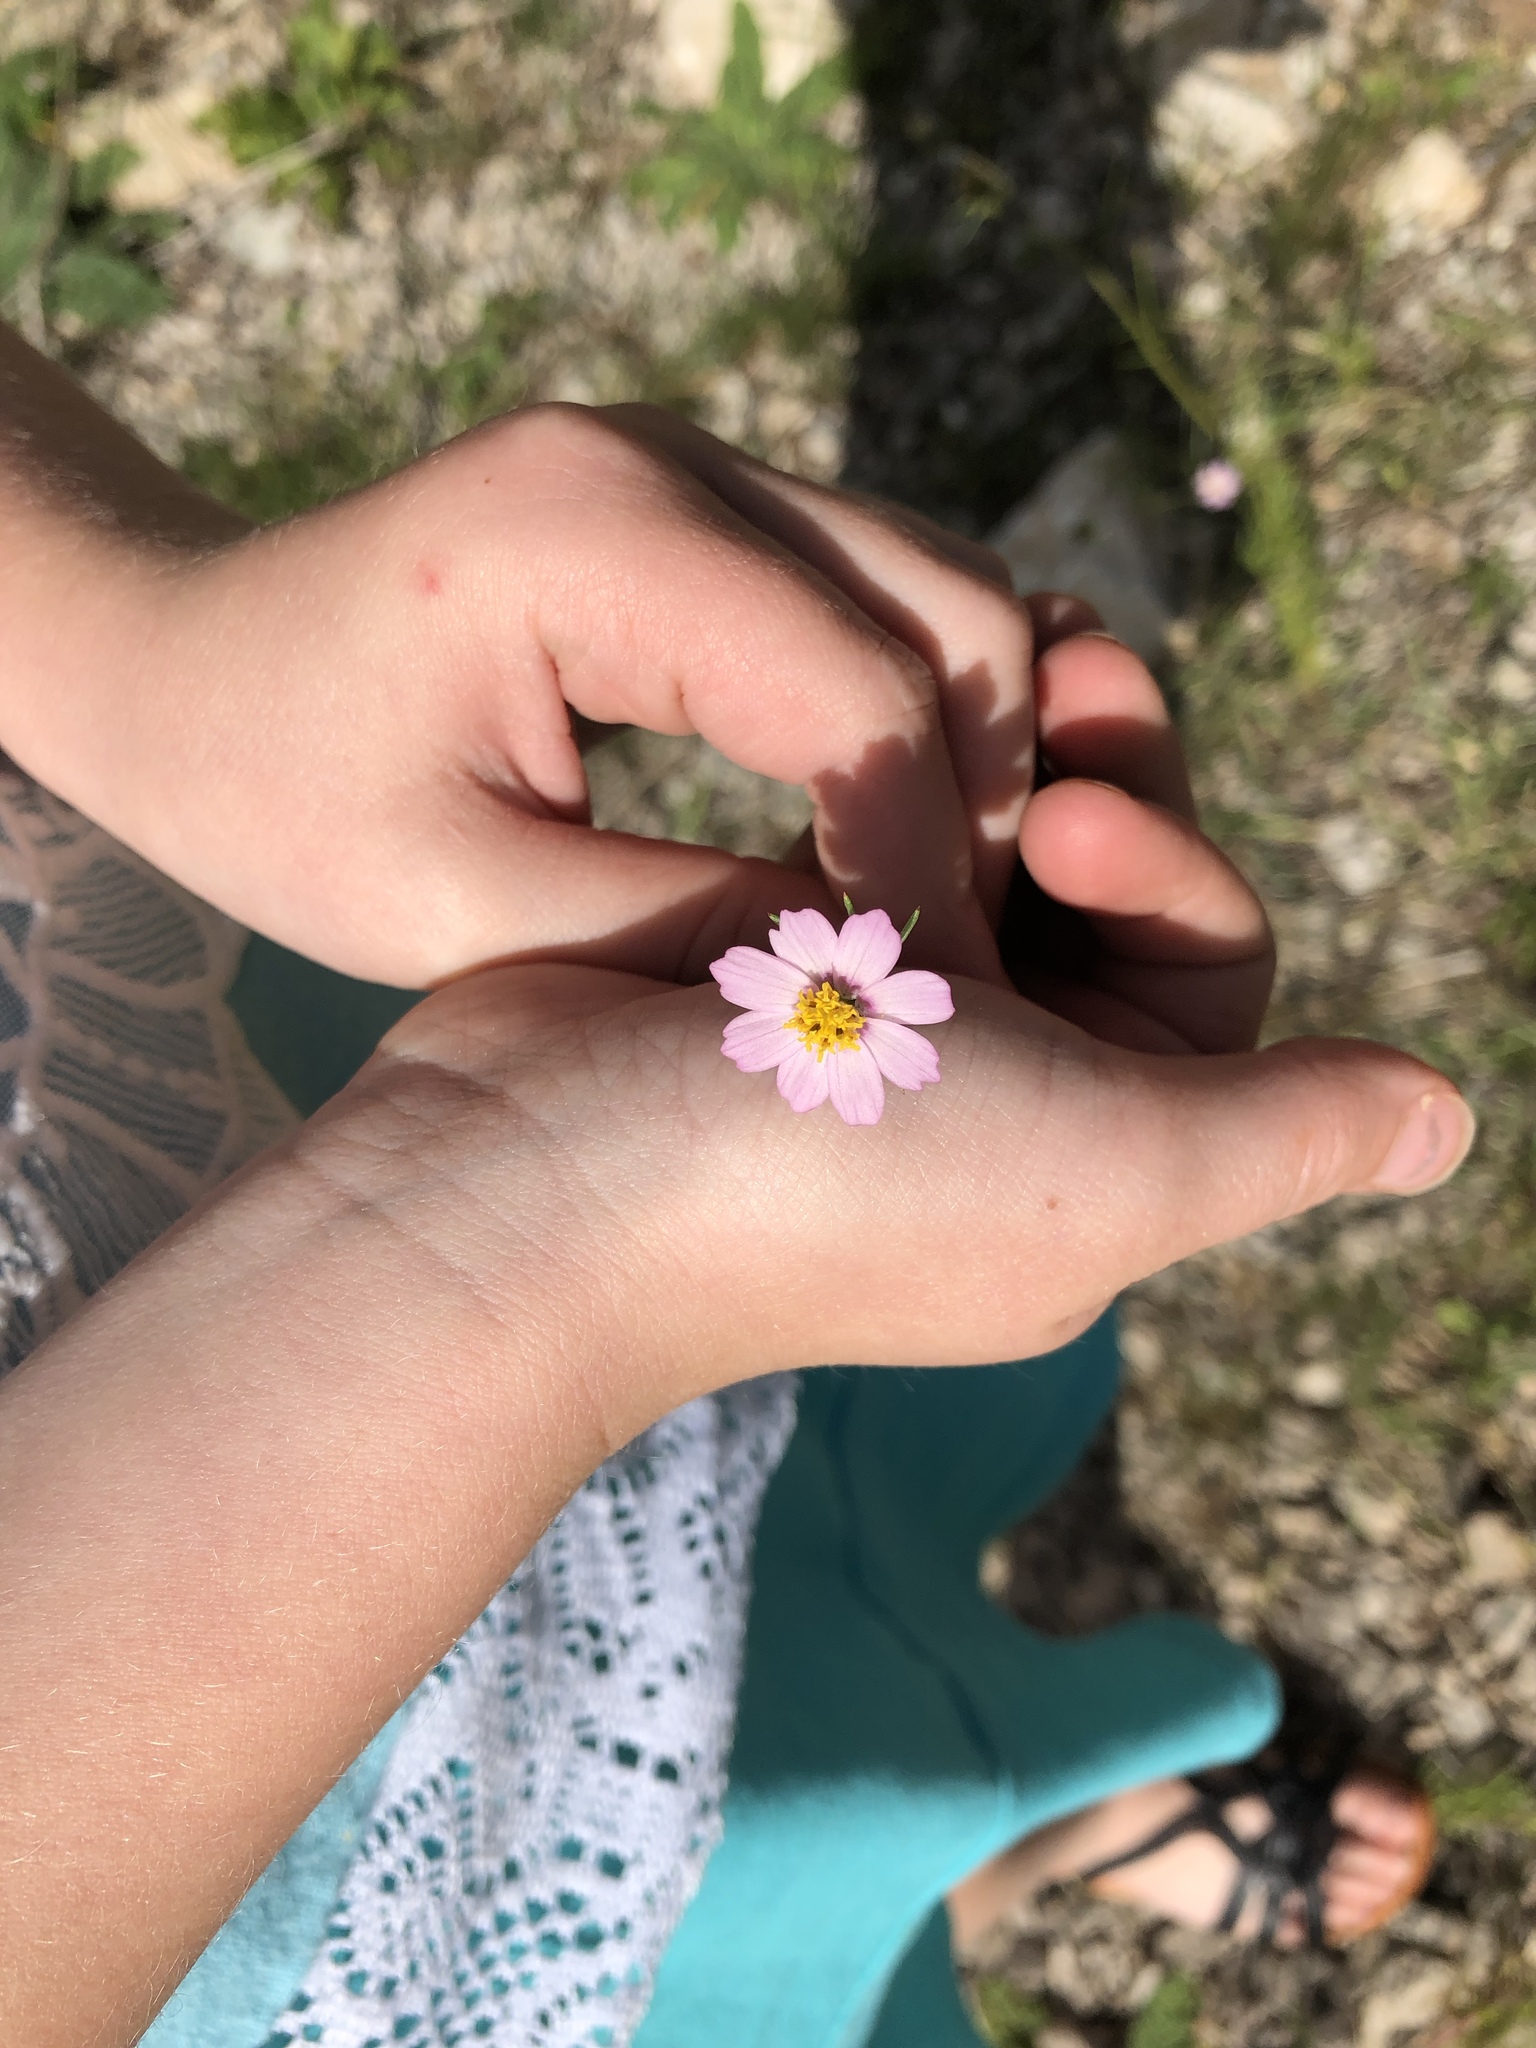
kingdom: Plantae
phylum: Tracheophyta
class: Magnoliopsida
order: Asterales
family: Asteraceae
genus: Cosmos
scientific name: Cosmos parviflorus
